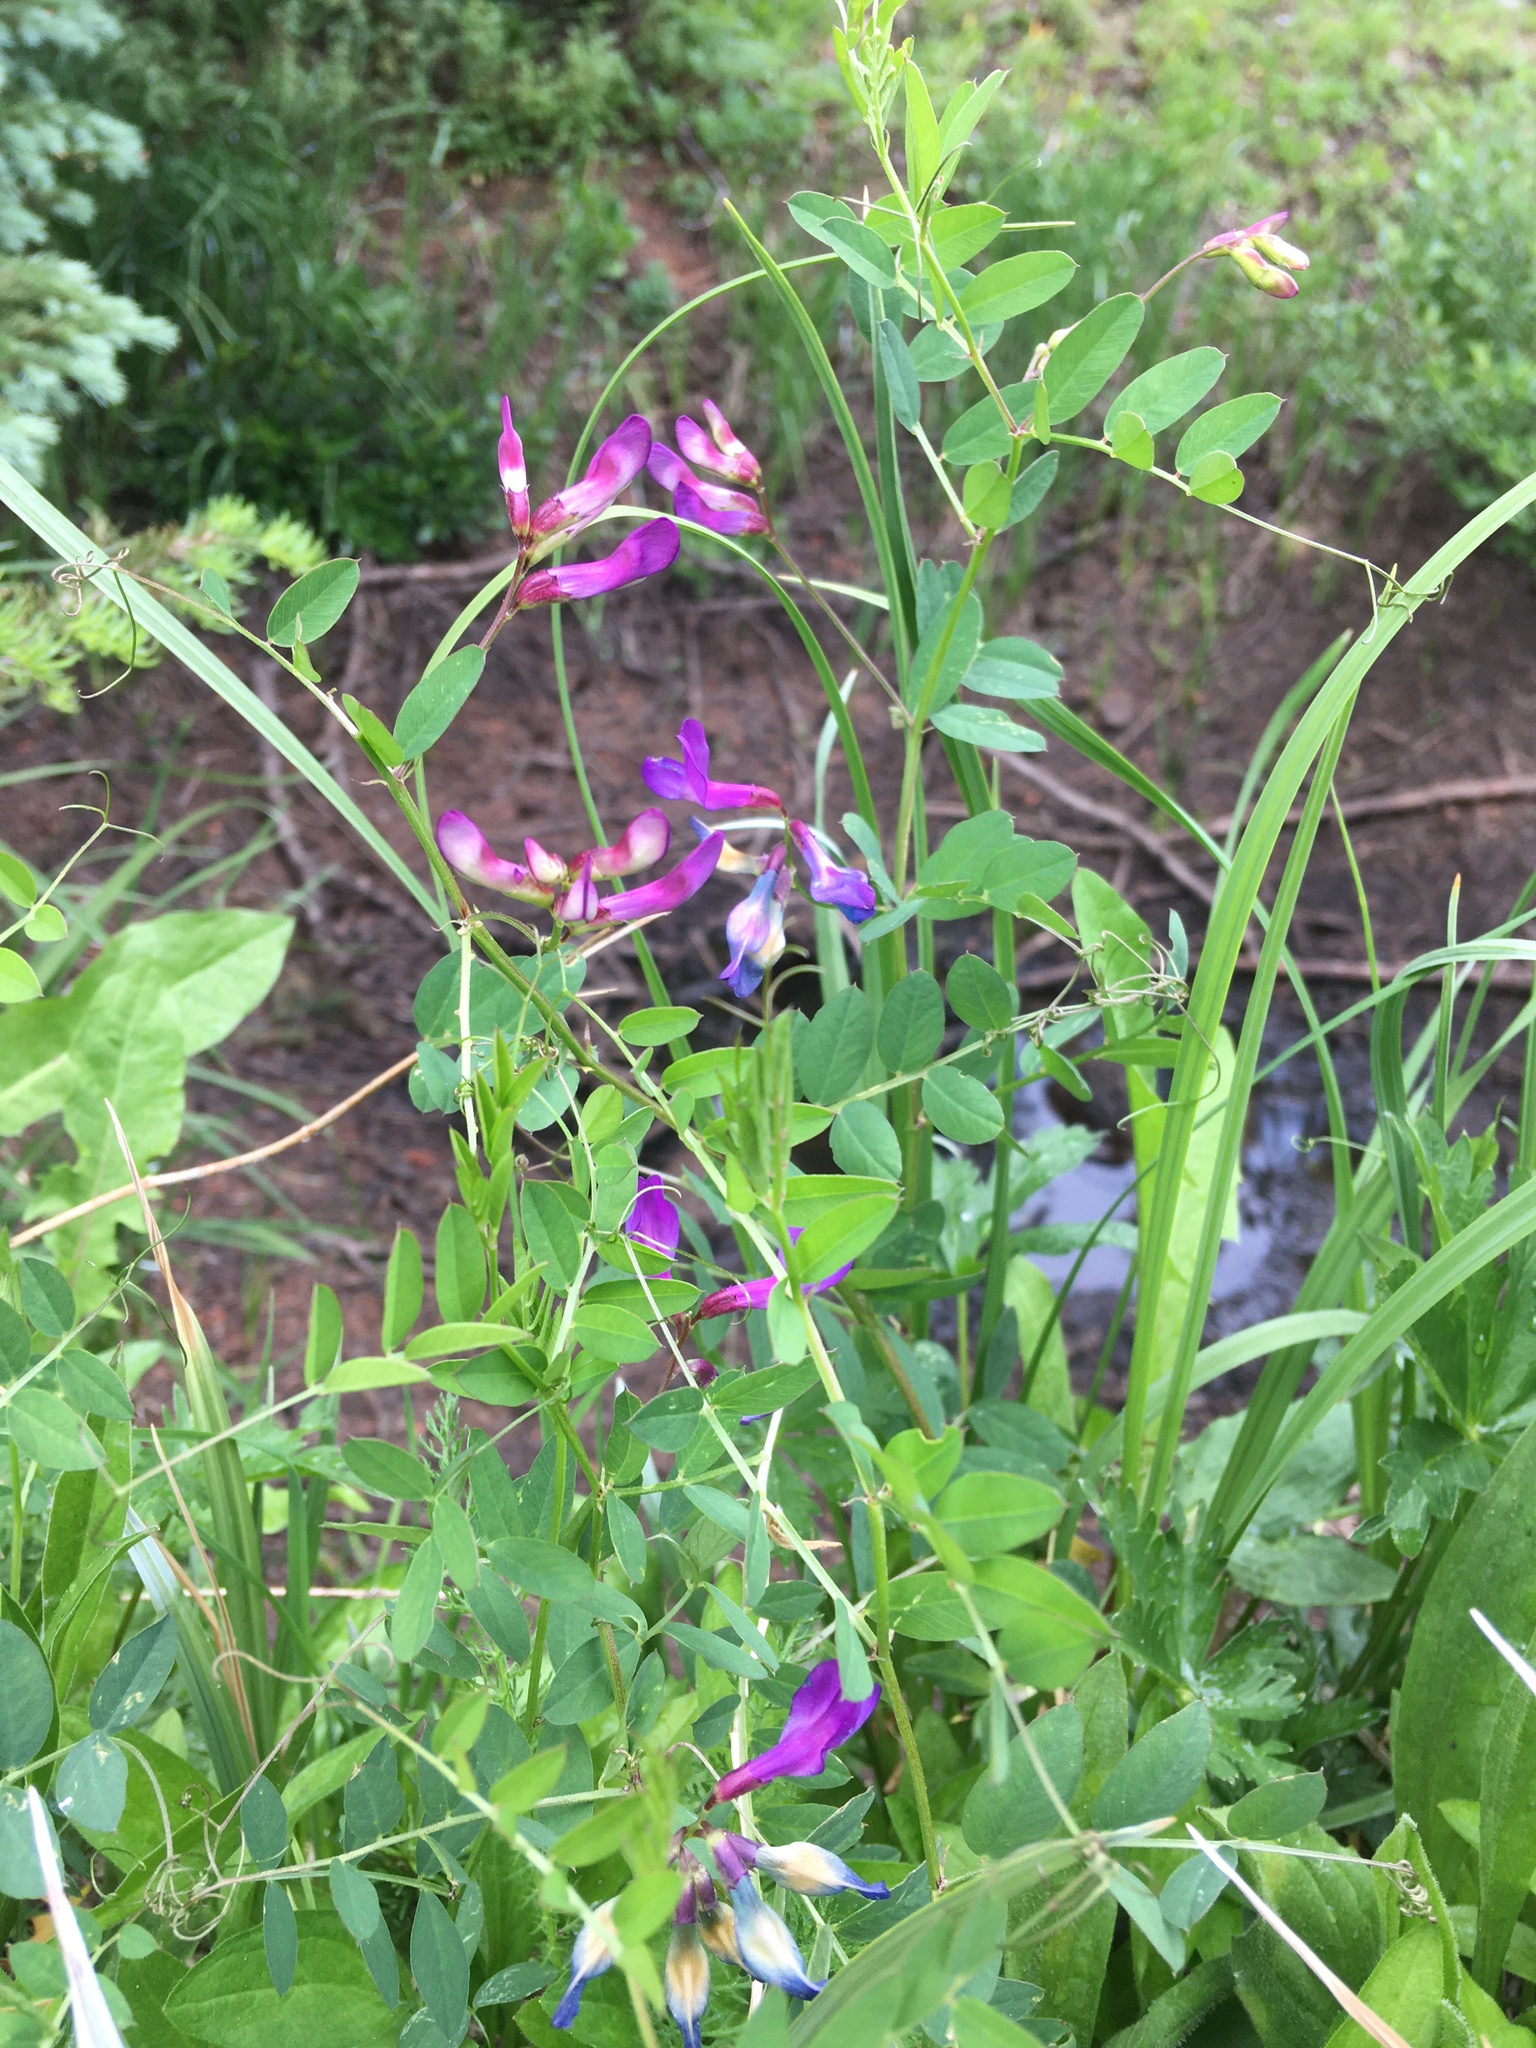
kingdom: Plantae
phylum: Tracheophyta
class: Magnoliopsida
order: Fabales
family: Fabaceae
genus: Vicia
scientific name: Vicia americana
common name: American vetch
